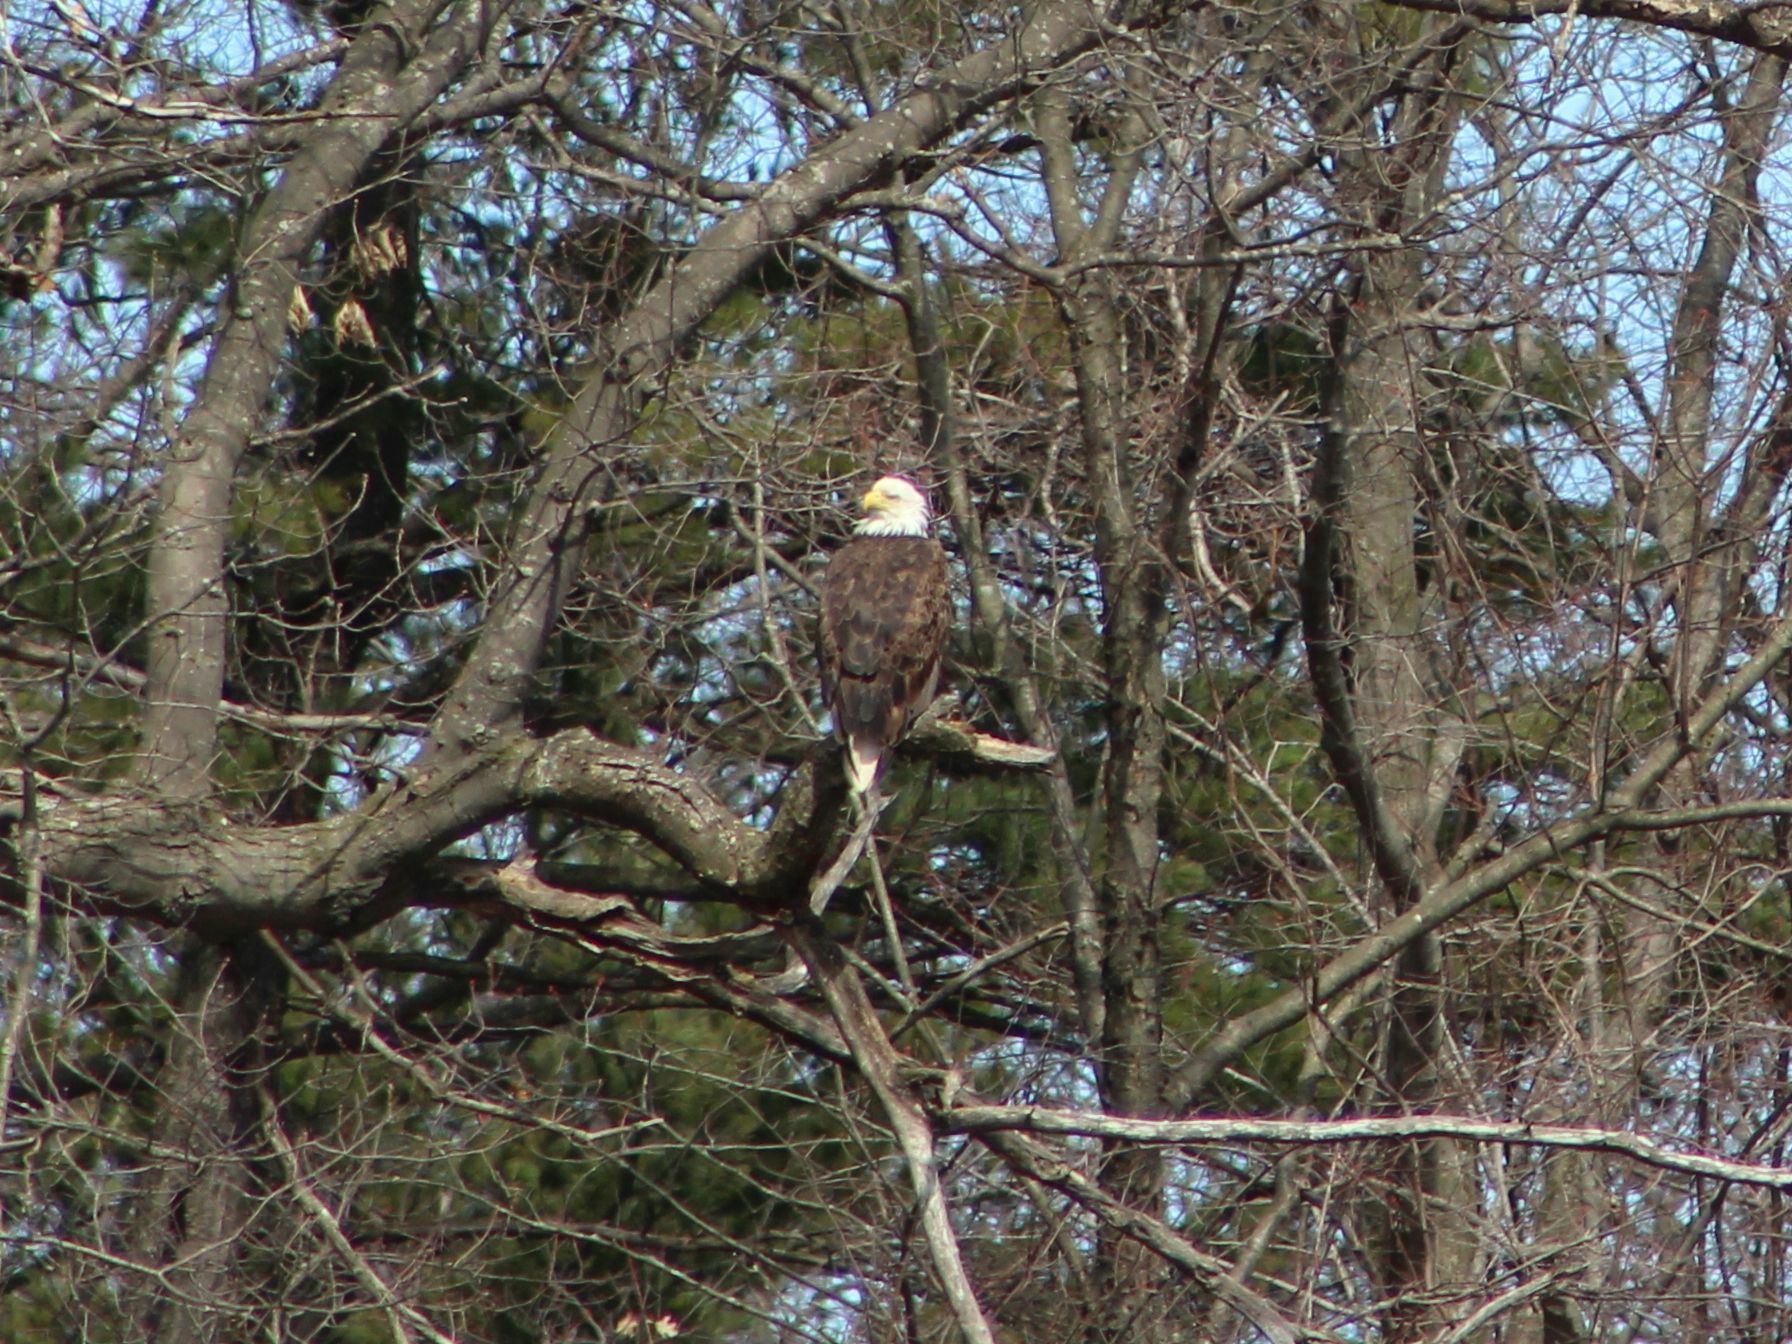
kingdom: Animalia
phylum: Chordata
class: Aves
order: Accipitriformes
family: Accipitridae
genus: Haliaeetus
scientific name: Haliaeetus leucocephalus
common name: Bald eagle
